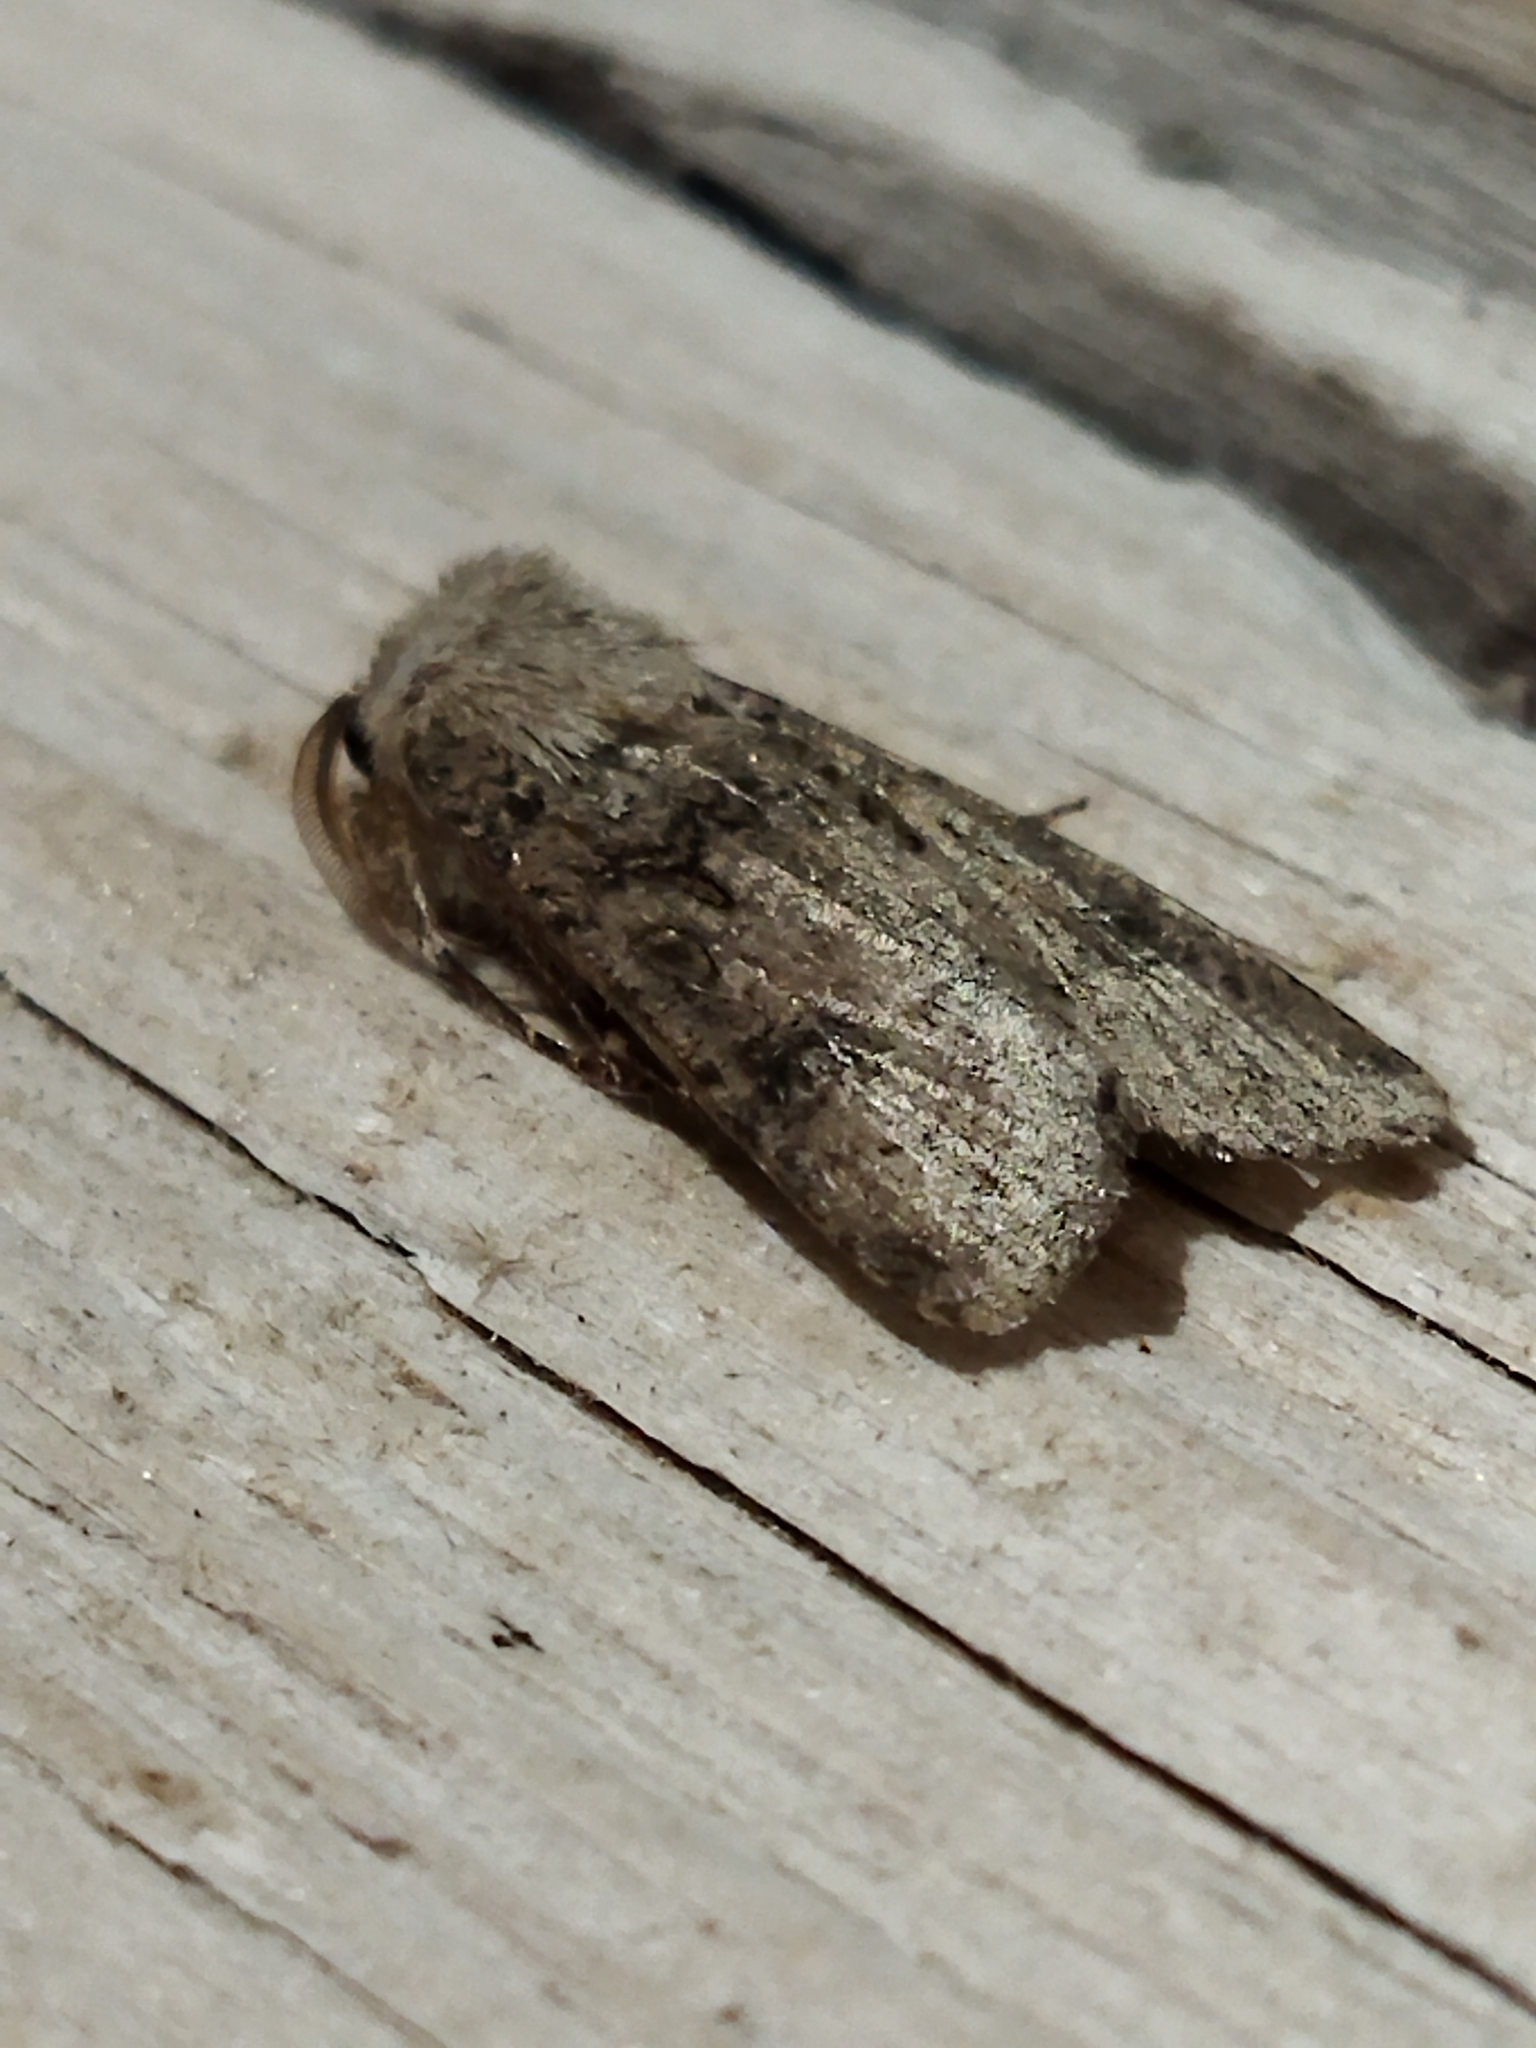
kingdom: Animalia
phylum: Arthropoda
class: Insecta
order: Lepidoptera
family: Noctuidae
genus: Agrotis
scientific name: Agrotis segetum
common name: Turnip moth
